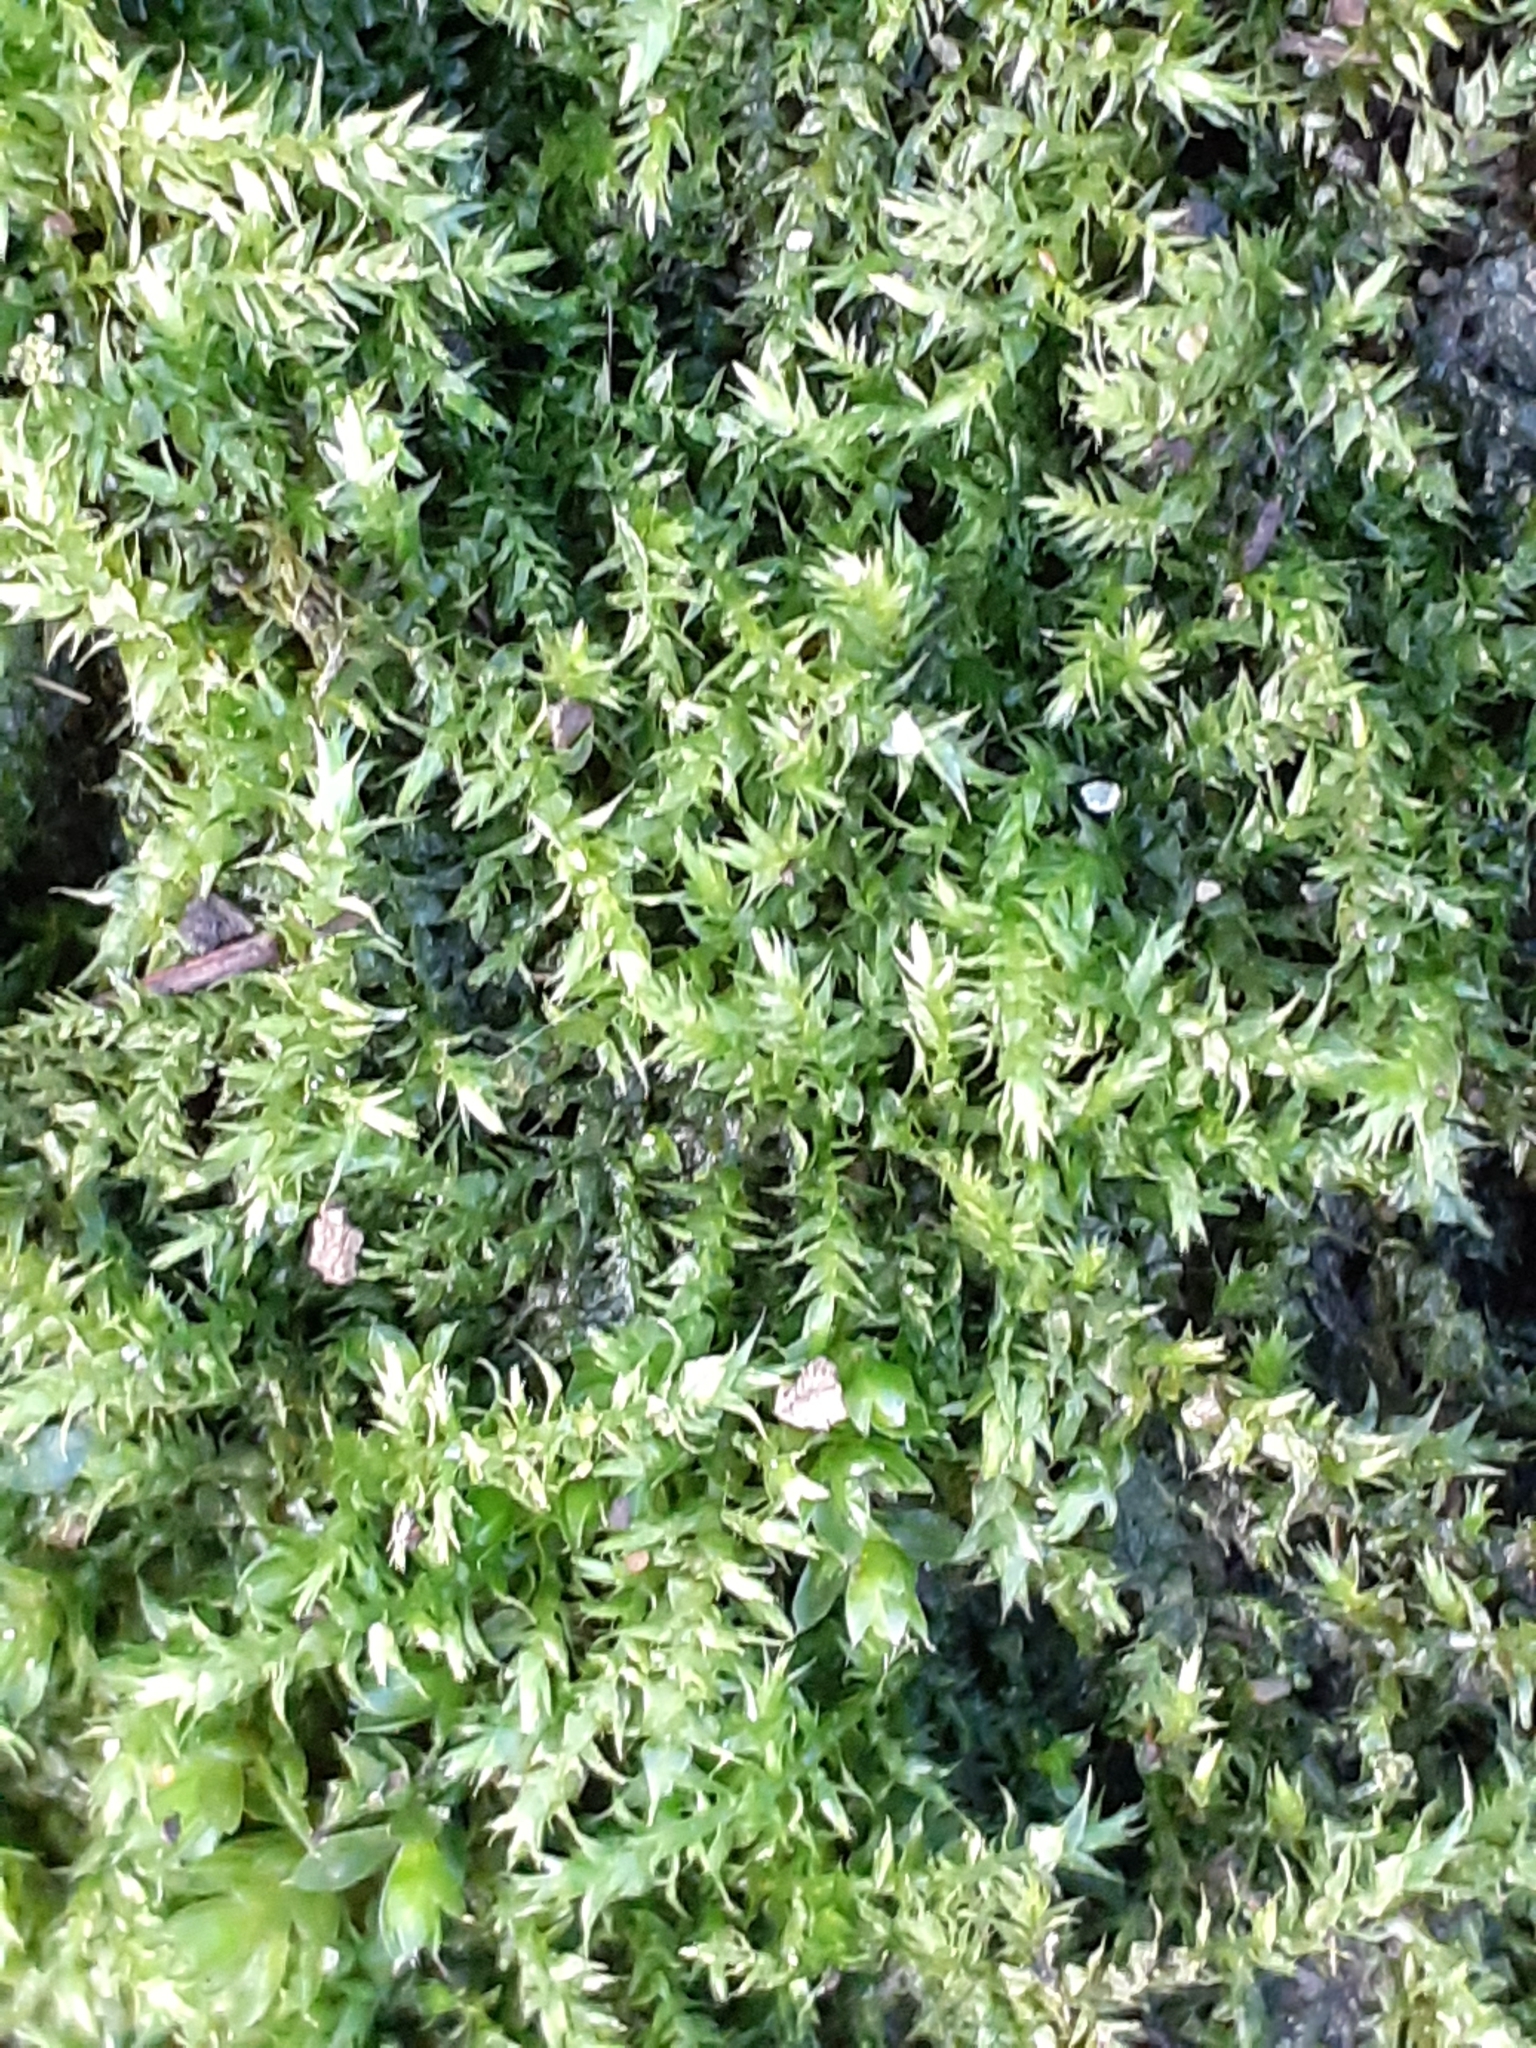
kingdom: Plantae
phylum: Bryophyta
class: Bryopsida
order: Hypnales
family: Brachytheciaceae
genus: Rhynchostegium
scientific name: Rhynchostegium confertum
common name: Clustered feather-moss
